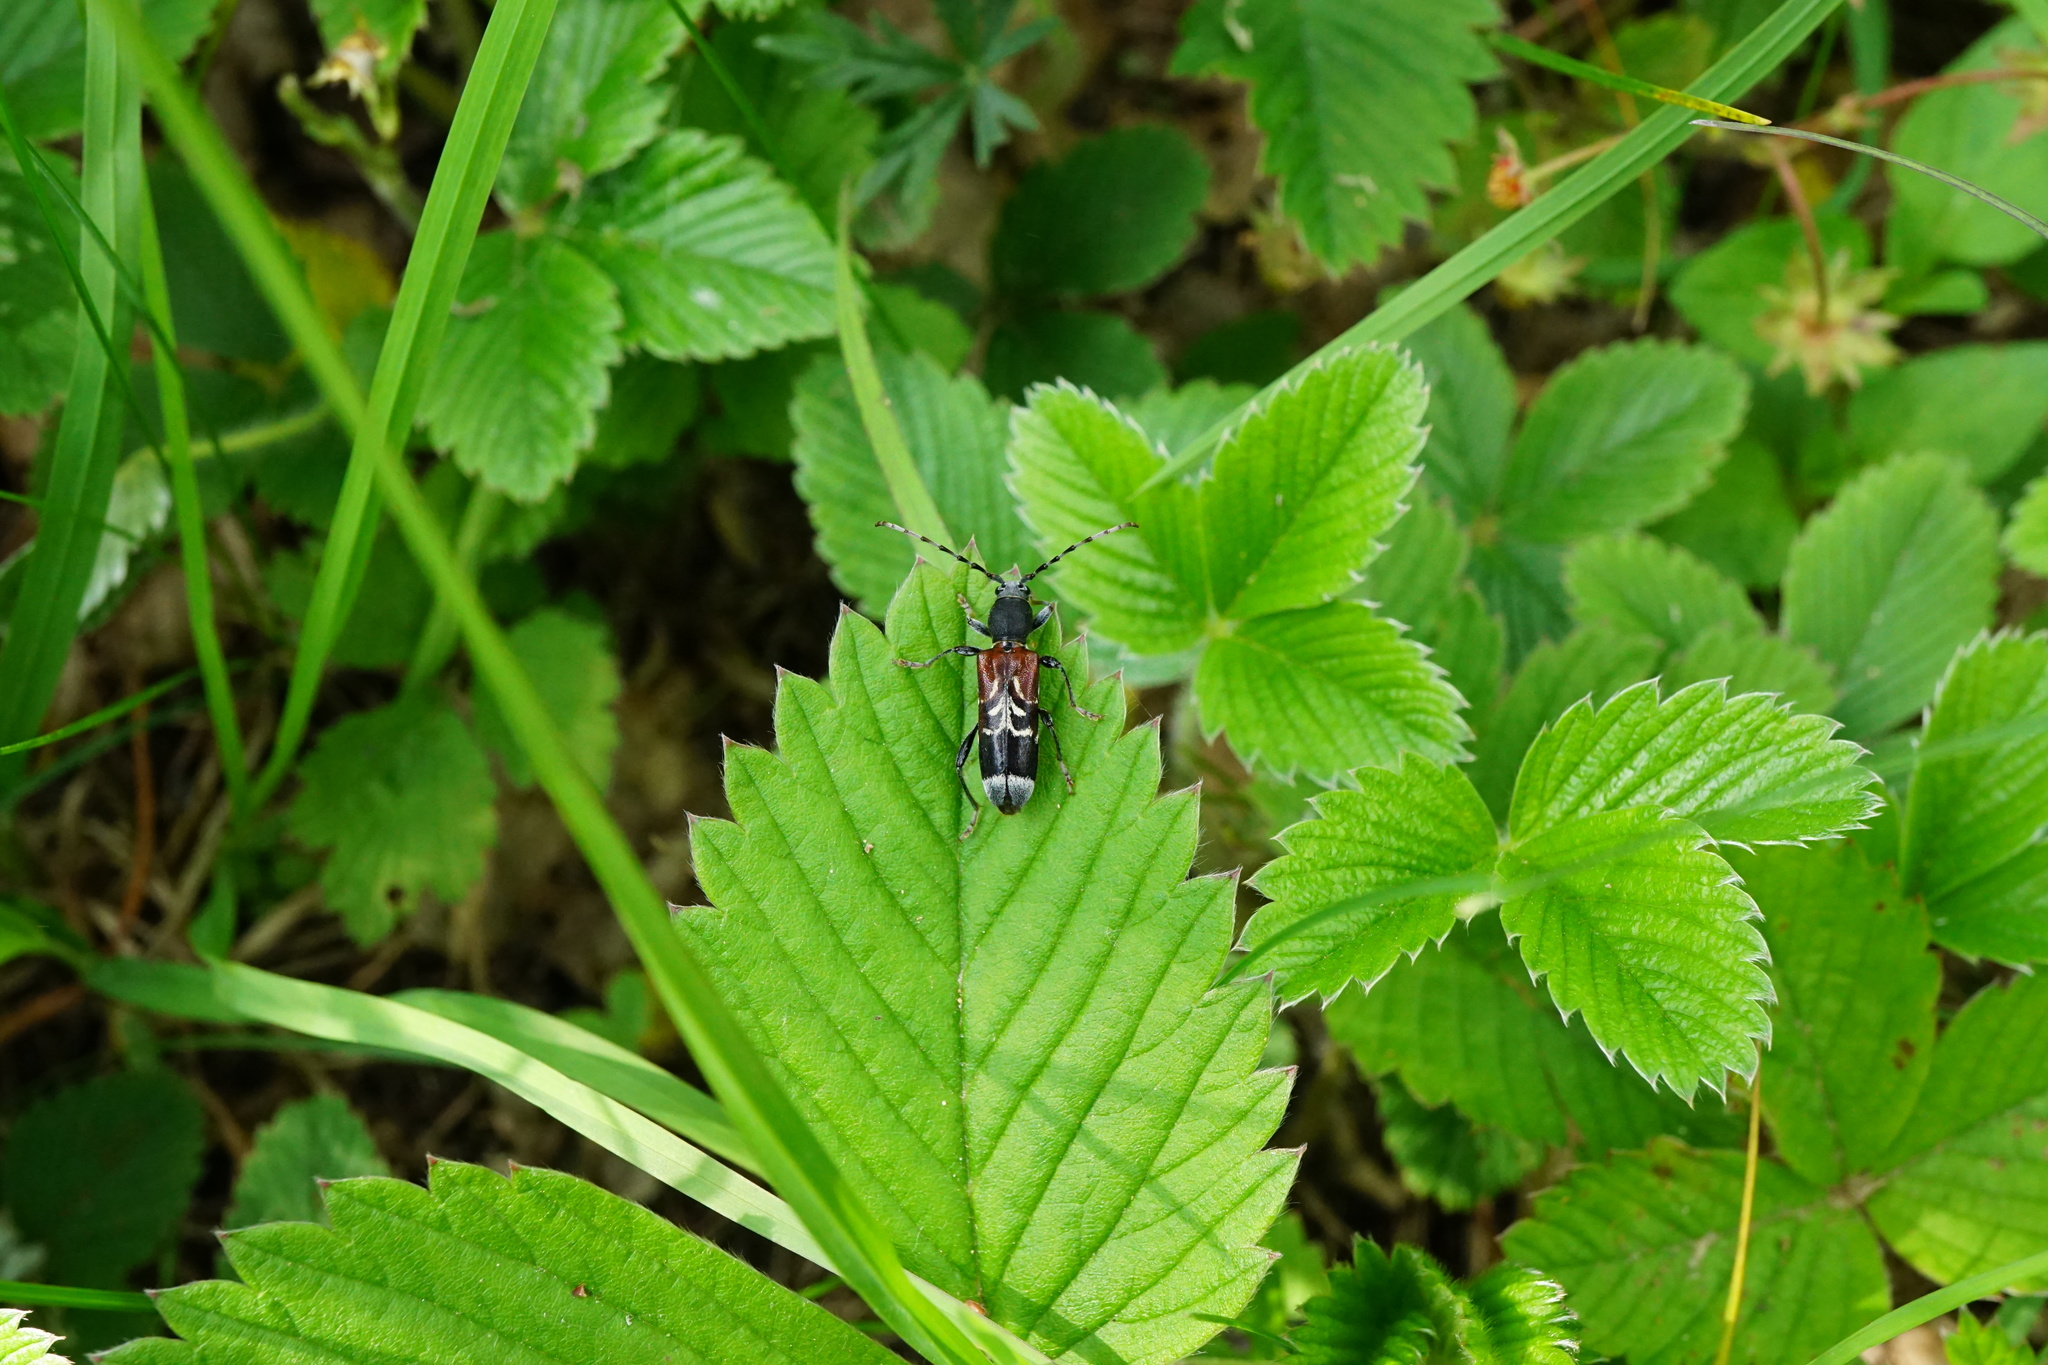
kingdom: Animalia
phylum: Arthropoda
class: Insecta
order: Coleoptera
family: Cerambycidae
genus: Anaglyptus
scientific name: Anaglyptus mysticus
